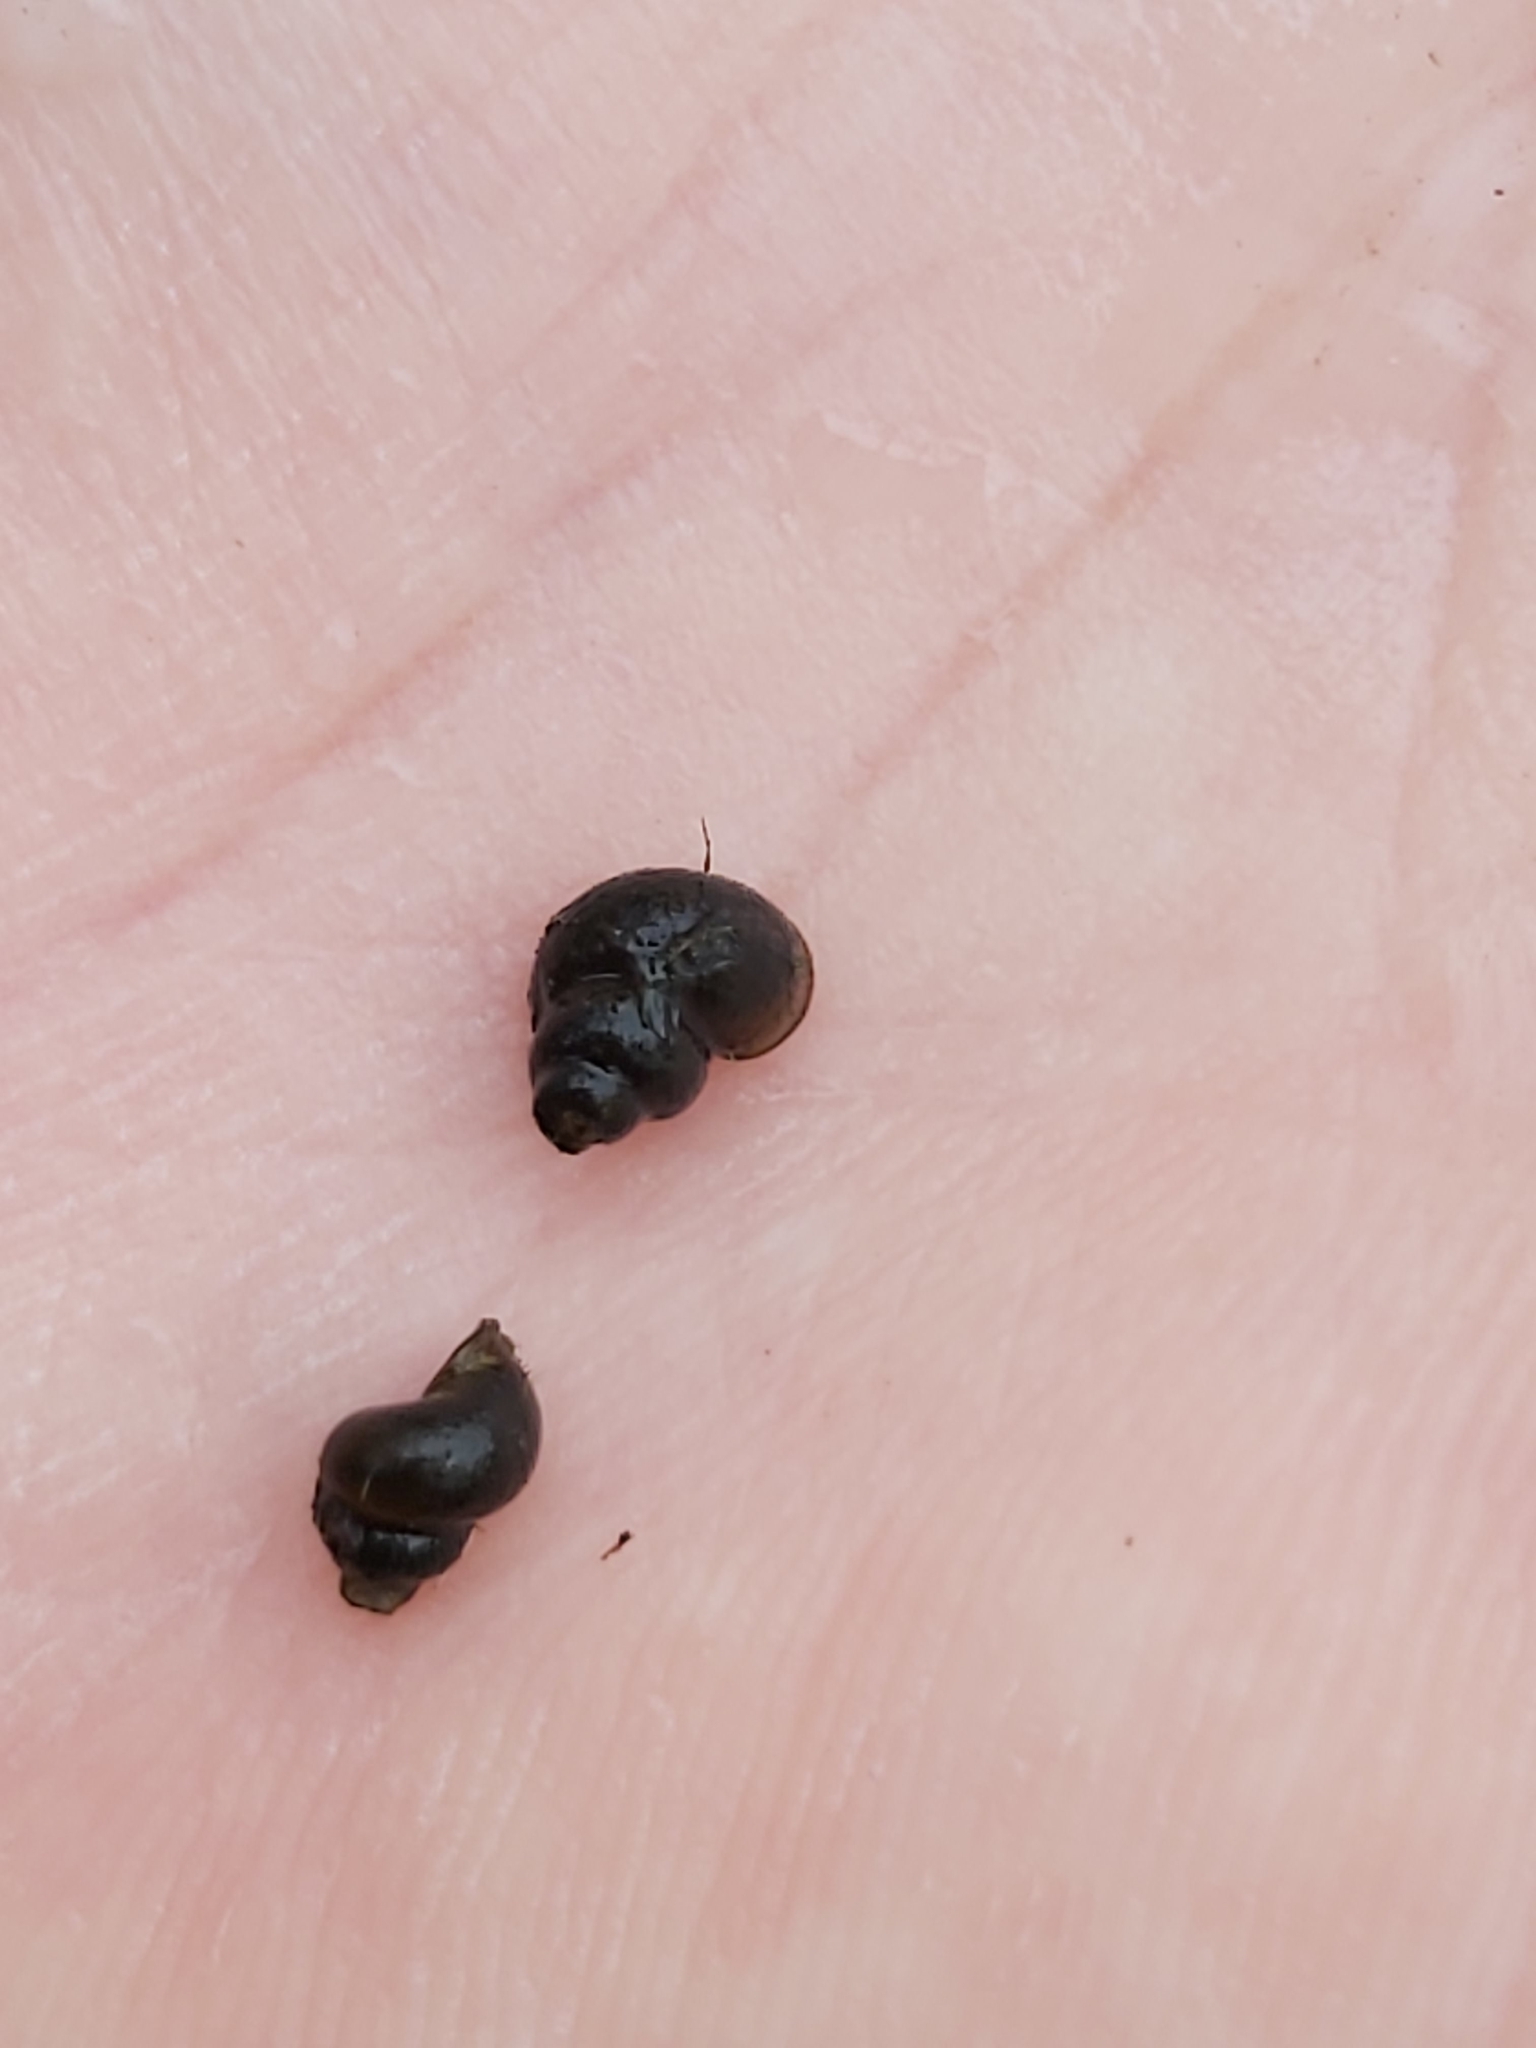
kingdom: Animalia
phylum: Mollusca
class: Gastropoda
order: Littorinimorpha
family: Bithyniidae
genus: Bithynia
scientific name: Bithynia leachii
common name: Leach's bithynia
